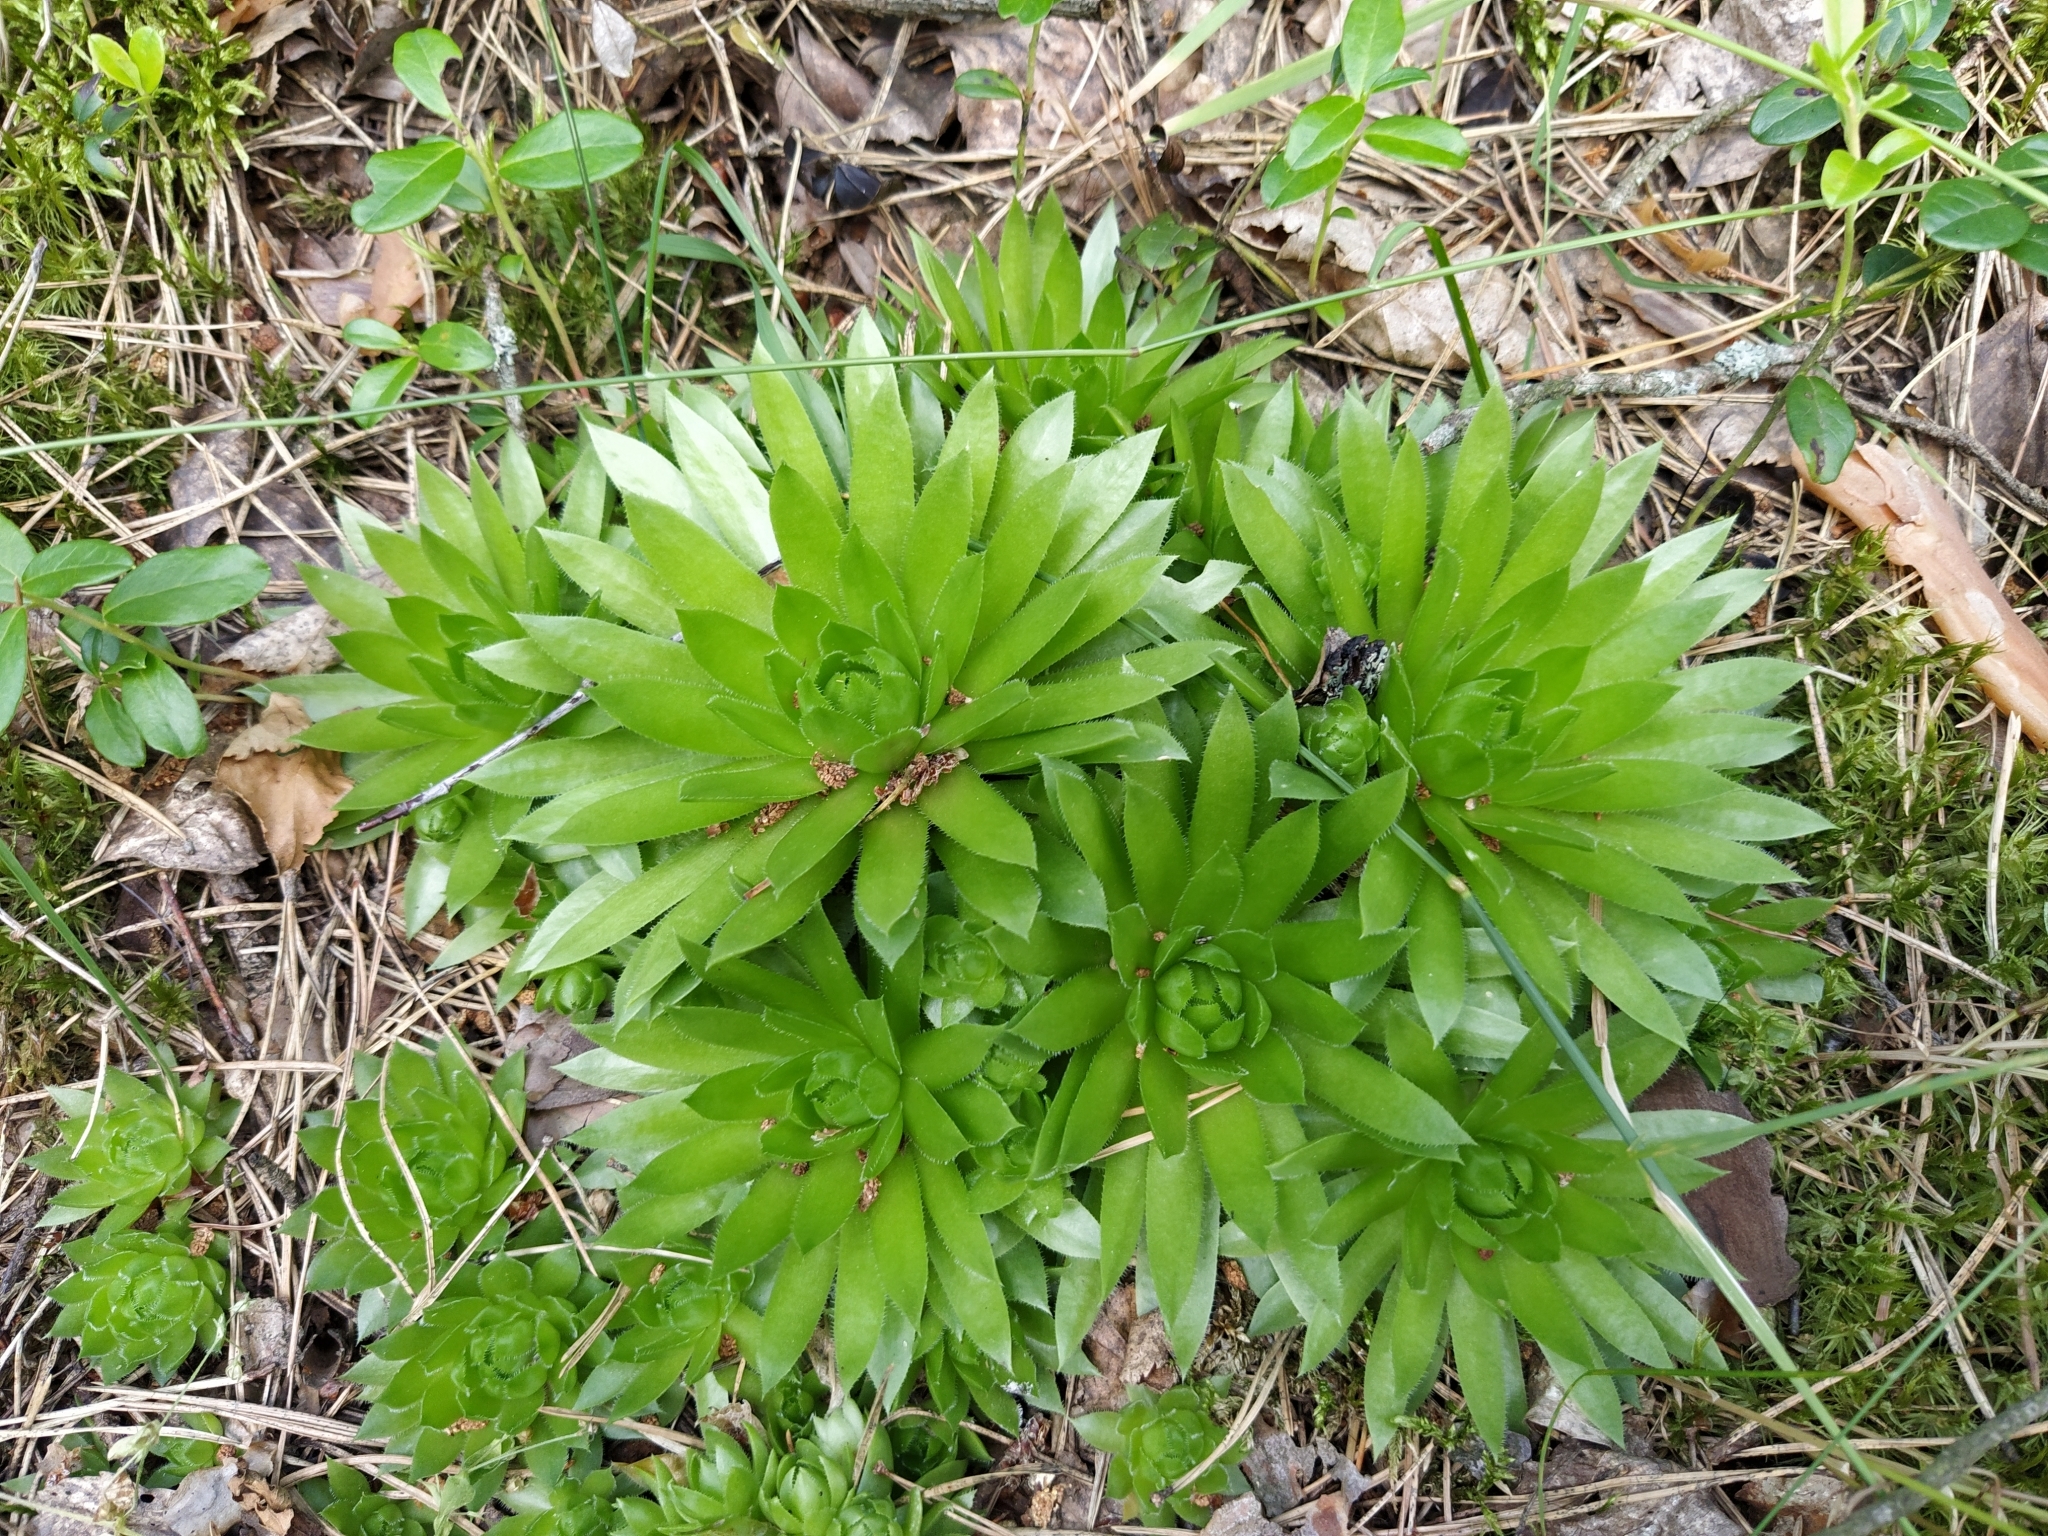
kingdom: Plantae
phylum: Tracheophyta
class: Magnoliopsida
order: Saxifragales
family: Crassulaceae
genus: Sempervivum
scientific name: Sempervivum globiferum
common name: Rolling hen-and-chicks
